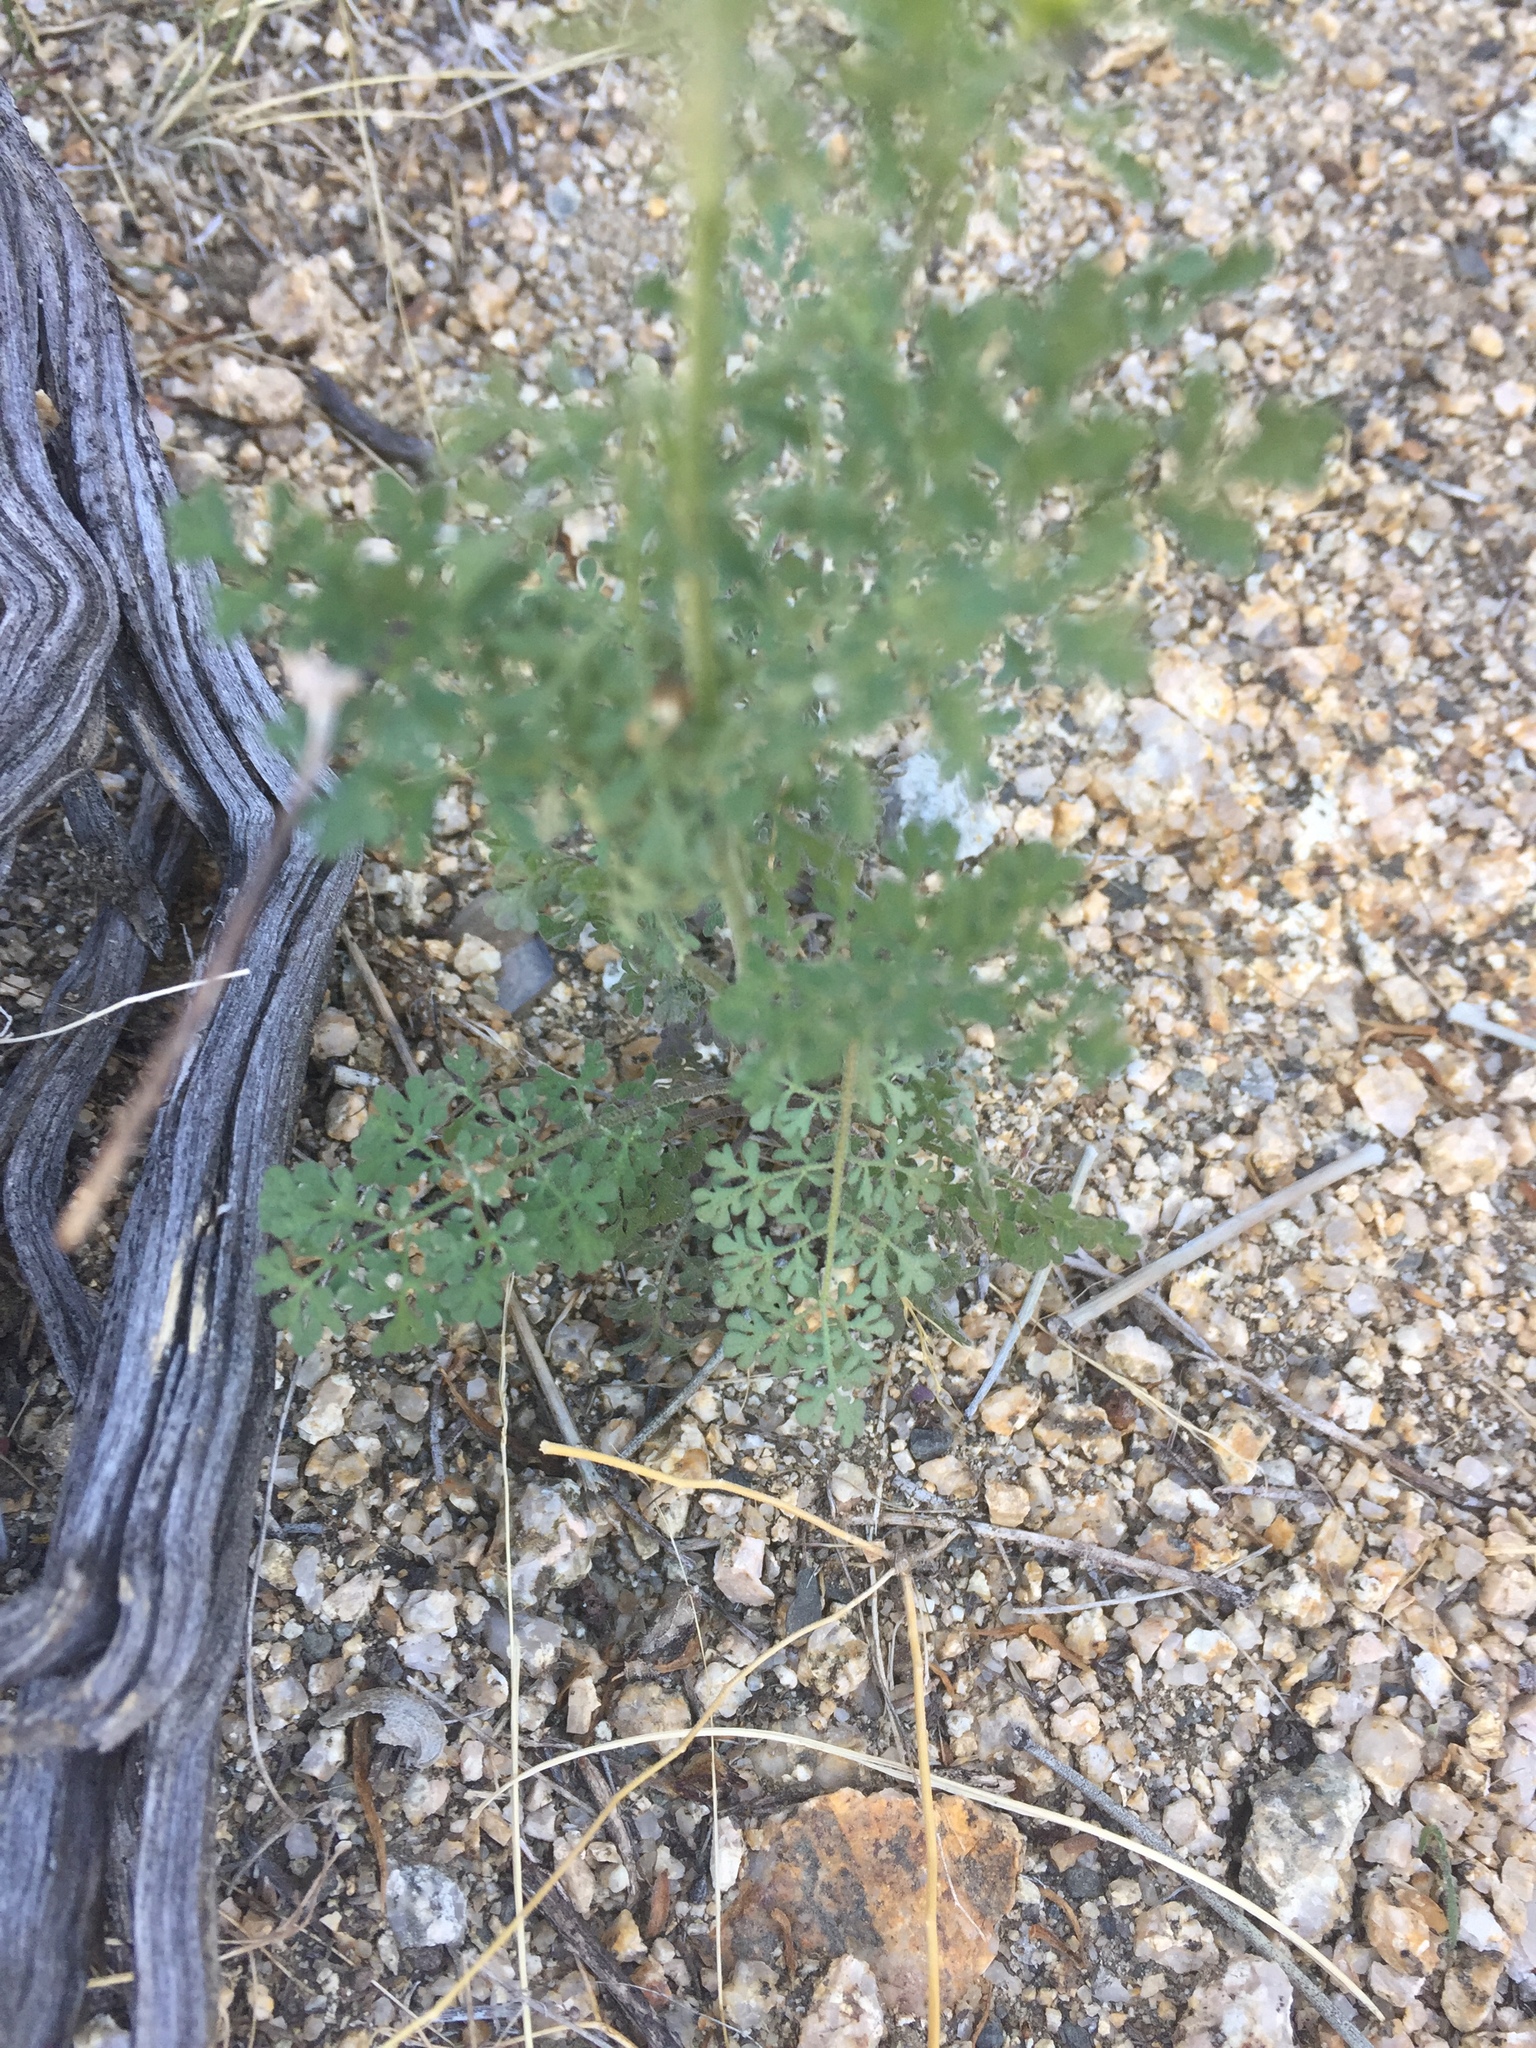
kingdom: Plantae
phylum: Tracheophyta
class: Magnoliopsida
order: Brassicales
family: Brassicaceae
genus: Descurainia
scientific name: Descurainia pinnata
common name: Western tansy mustard
